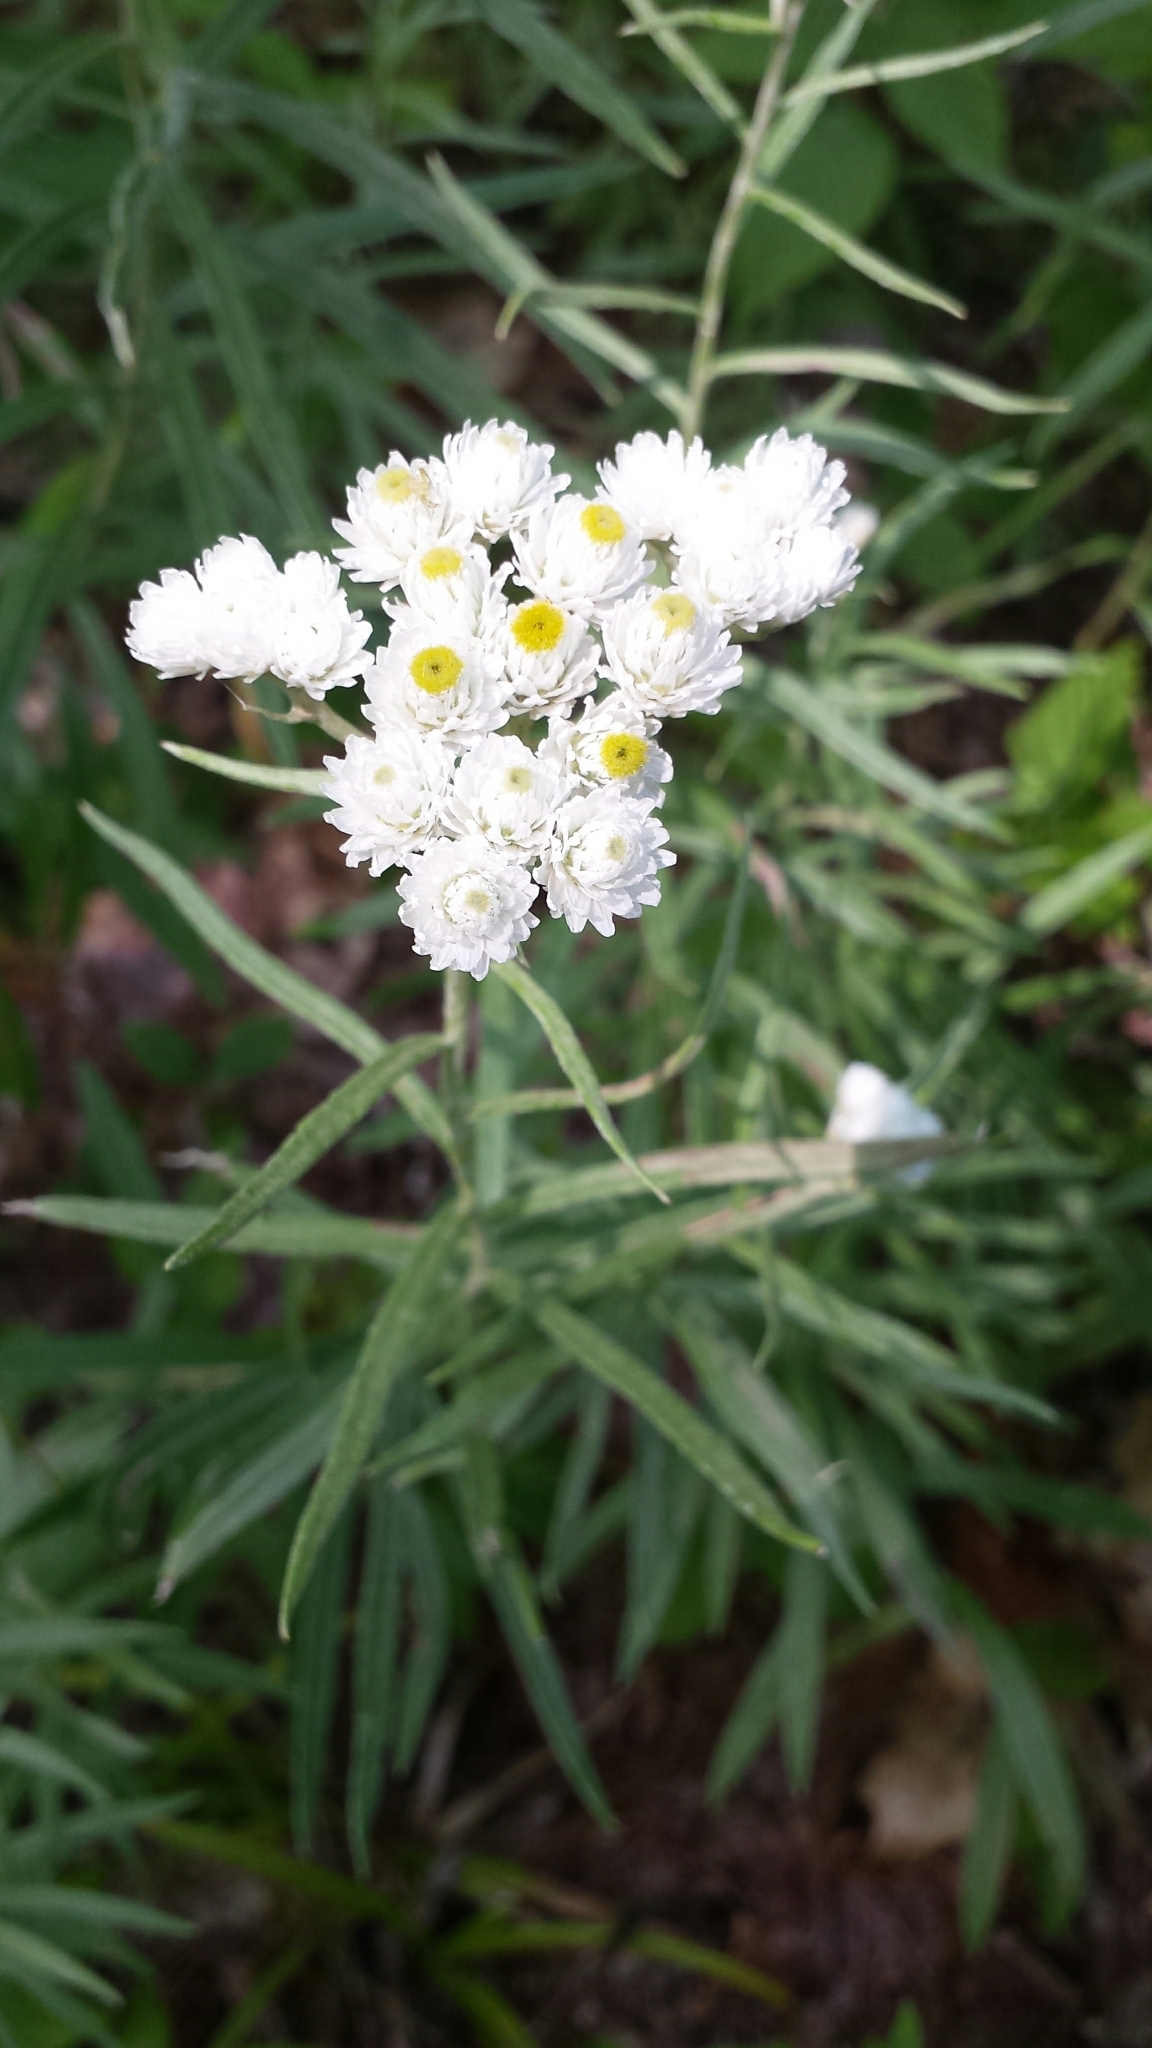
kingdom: Plantae
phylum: Tracheophyta
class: Magnoliopsida
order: Asterales
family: Asteraceae
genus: Anaphalis
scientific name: Anaphalis margaritacea
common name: Pearly everlasting
